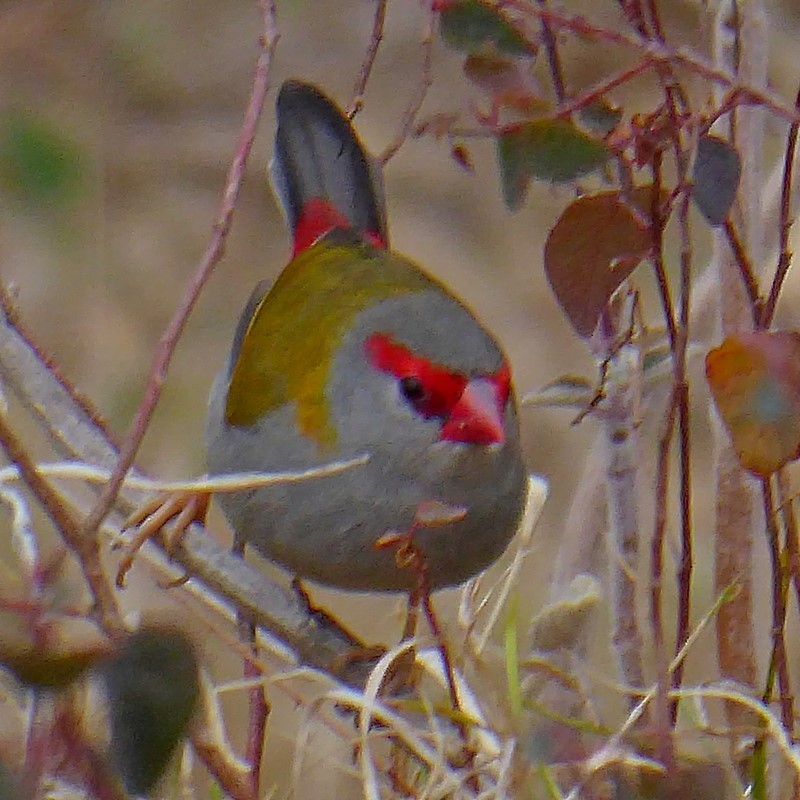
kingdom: Animalia
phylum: Chordata
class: Aves
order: Passeriformes
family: Estrildidae
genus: Neochmia
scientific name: Neochmia temporalis
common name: Red-browed finch
